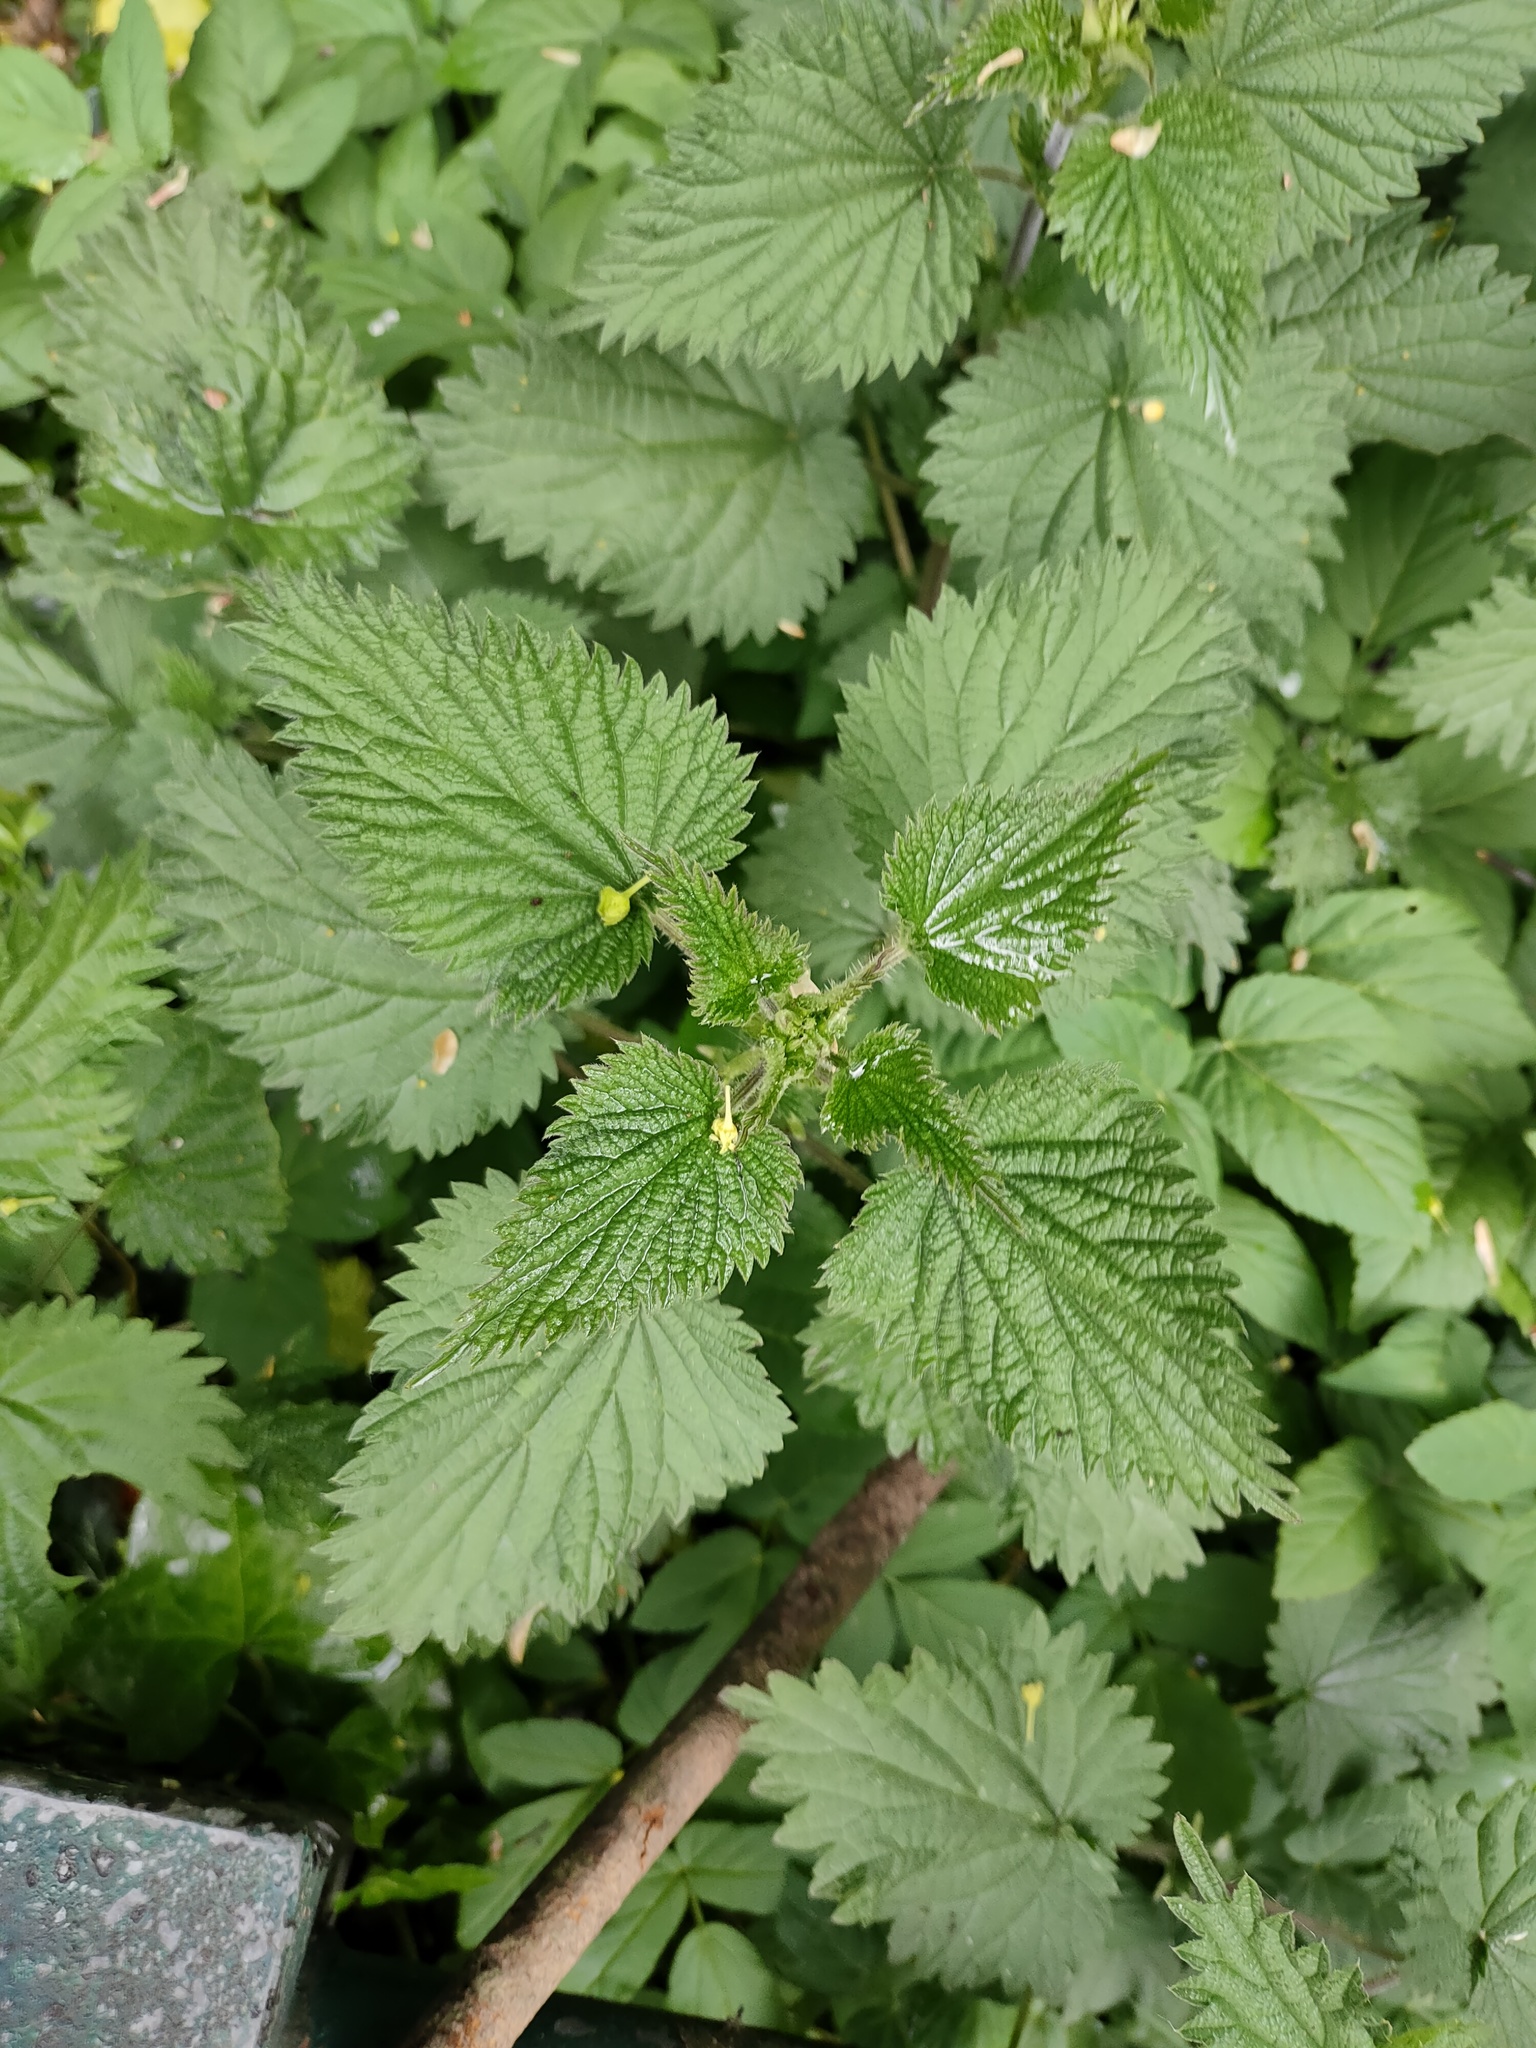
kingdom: Plantae
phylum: Tracheophyta
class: Magnoliopsida
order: Rosales
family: Urticaceae
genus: Urtica
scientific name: Urtica dioica
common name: Common nettle
